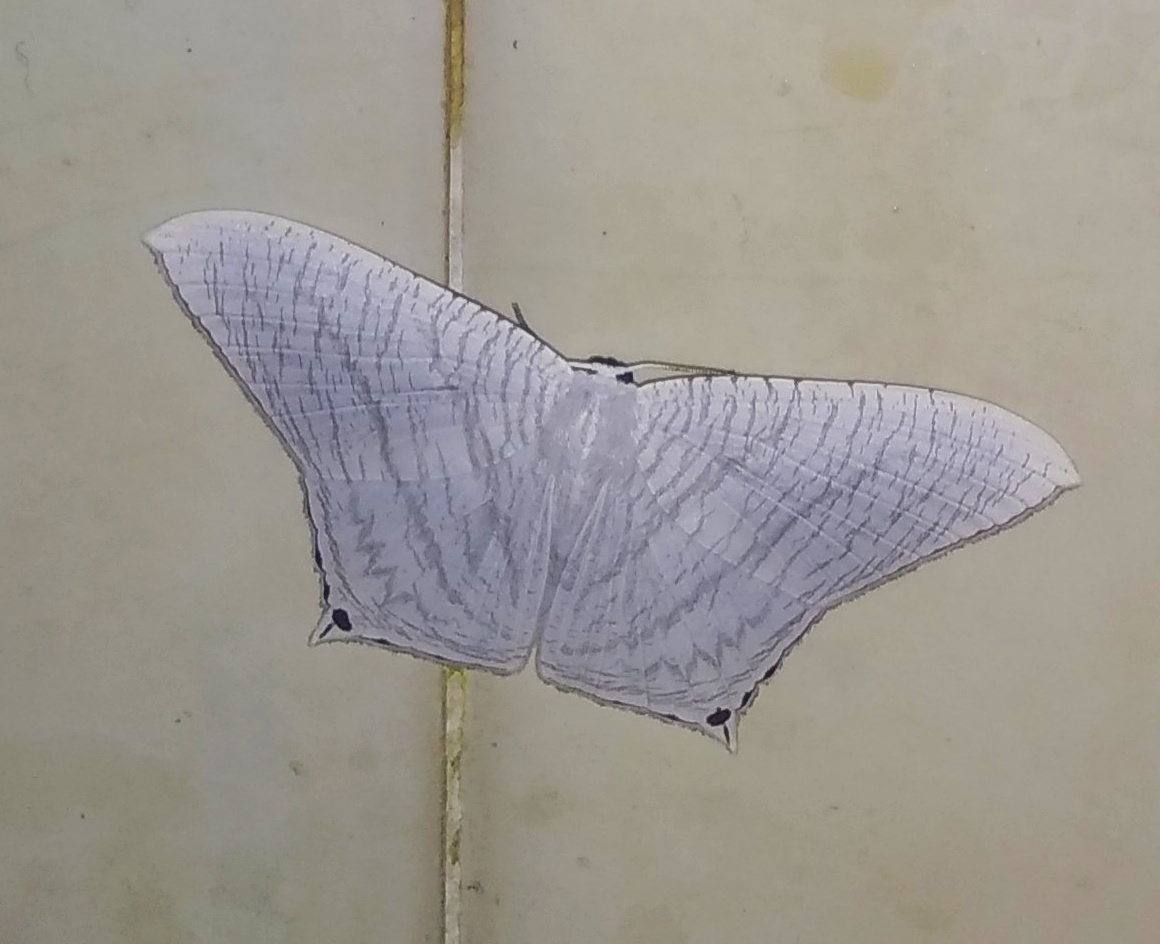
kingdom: Animalia
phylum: Arthropoda
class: Insecta
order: Lepidoptera
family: Uraniidae
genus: Micronia
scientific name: Micronia aculeata
